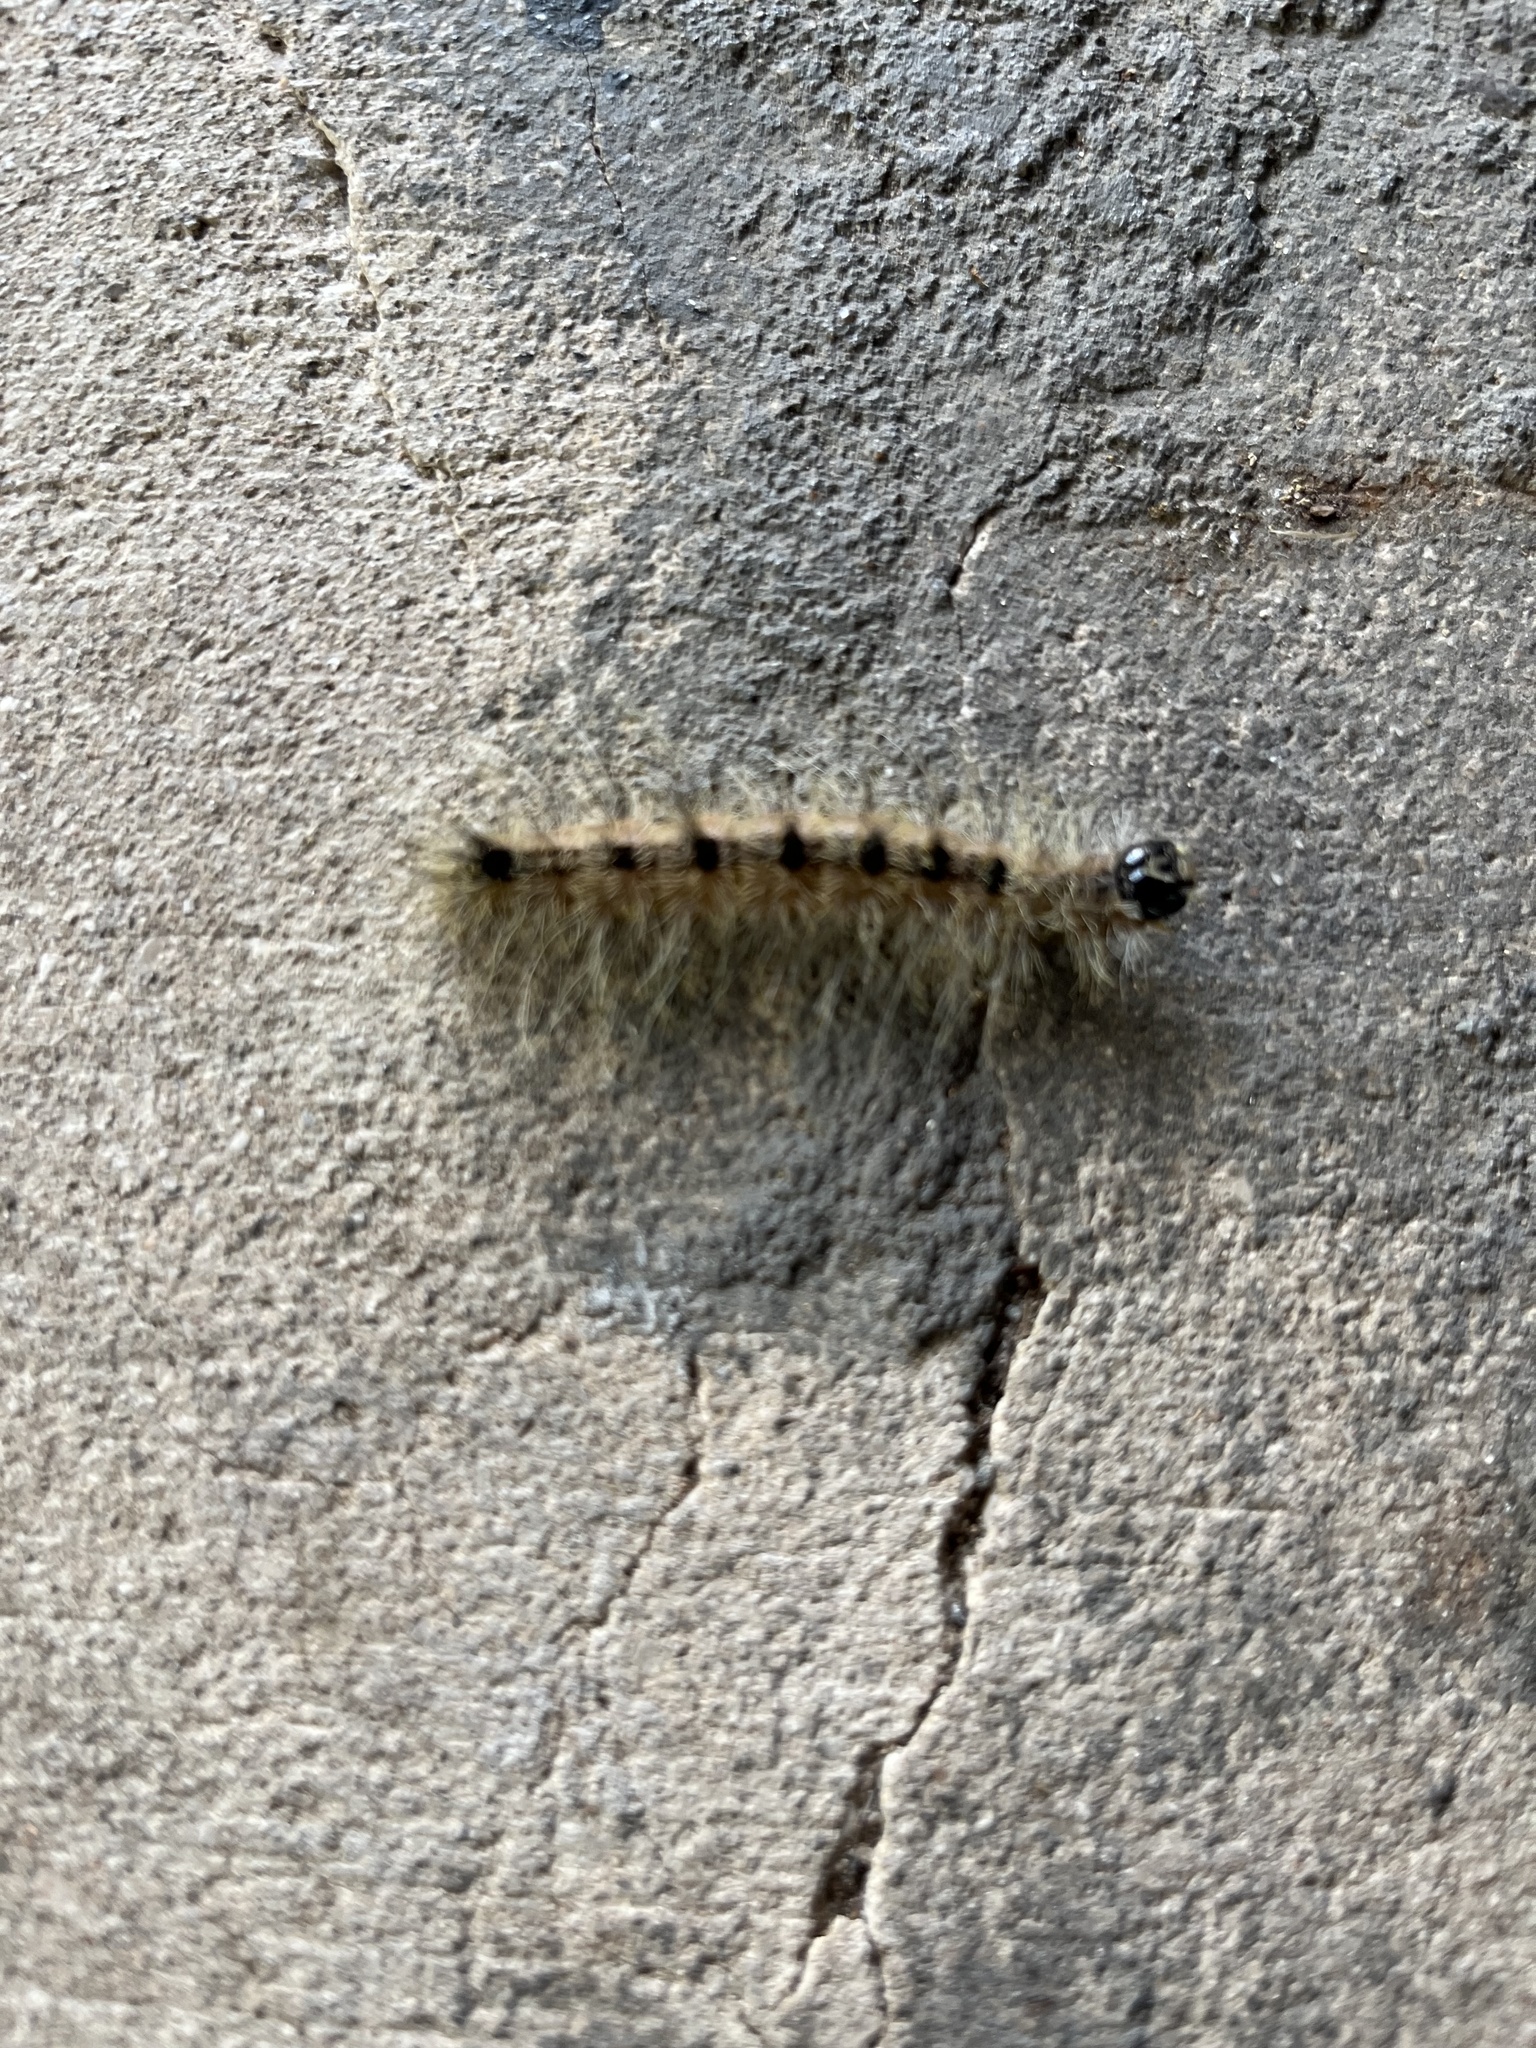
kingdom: Animalia
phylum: Arthropoda
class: Insecta
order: Lepidoptera
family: Noctuidae
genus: Acronicta
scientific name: Acronicta rubricoma
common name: Hackberry dagger
